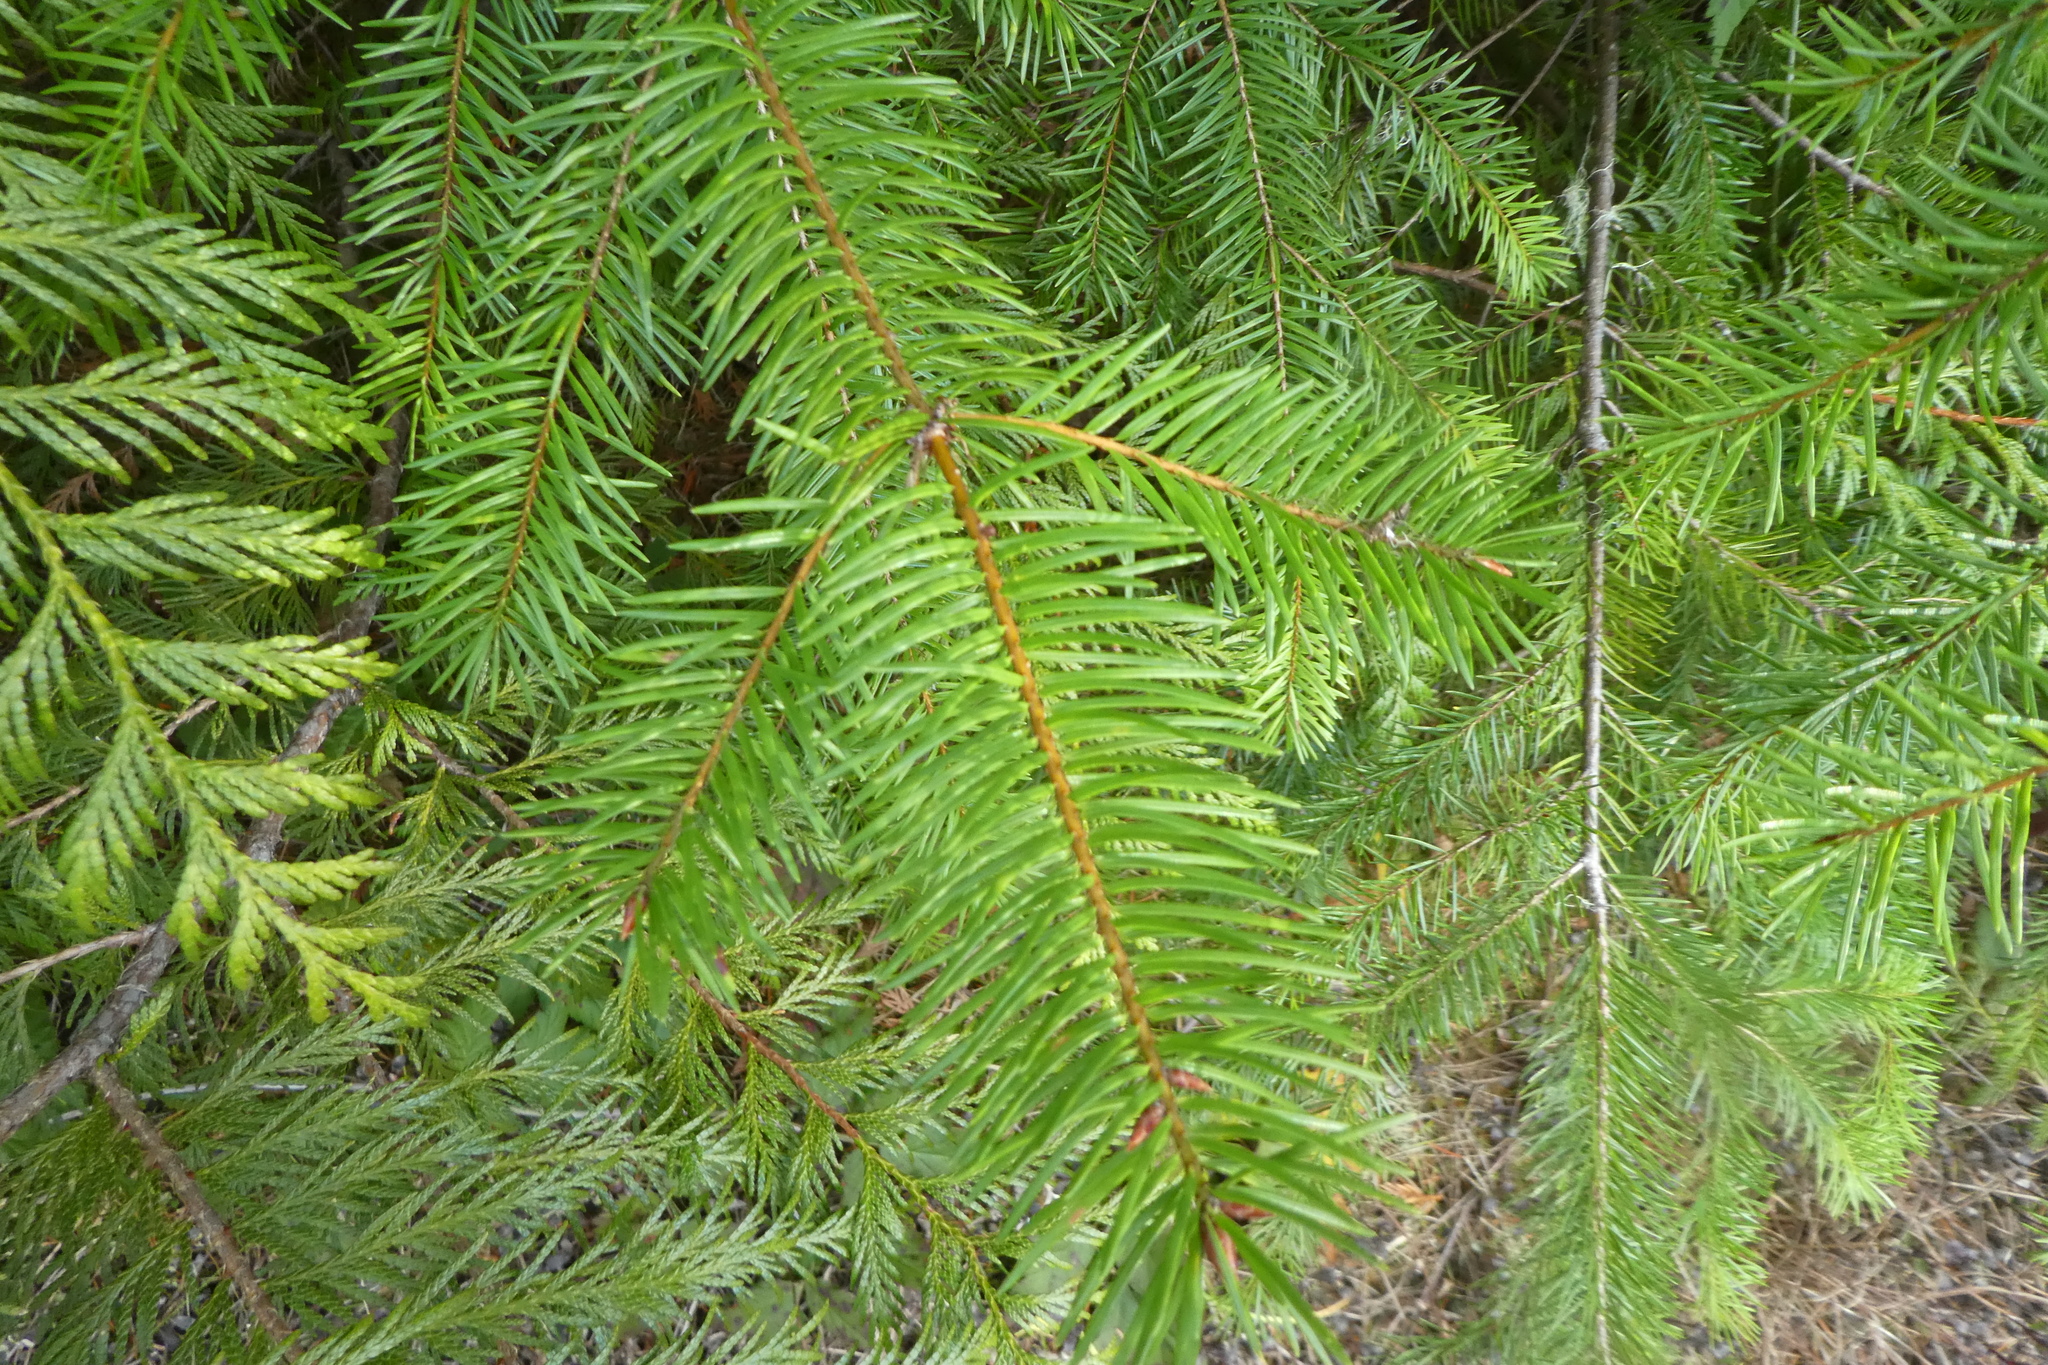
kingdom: Plantae
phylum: Tracheophyta
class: Pinopsida
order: Pinales
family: Pinaceae
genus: Pseudotsuga
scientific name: Pseudotsuga menziesii
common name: Douglas fir
